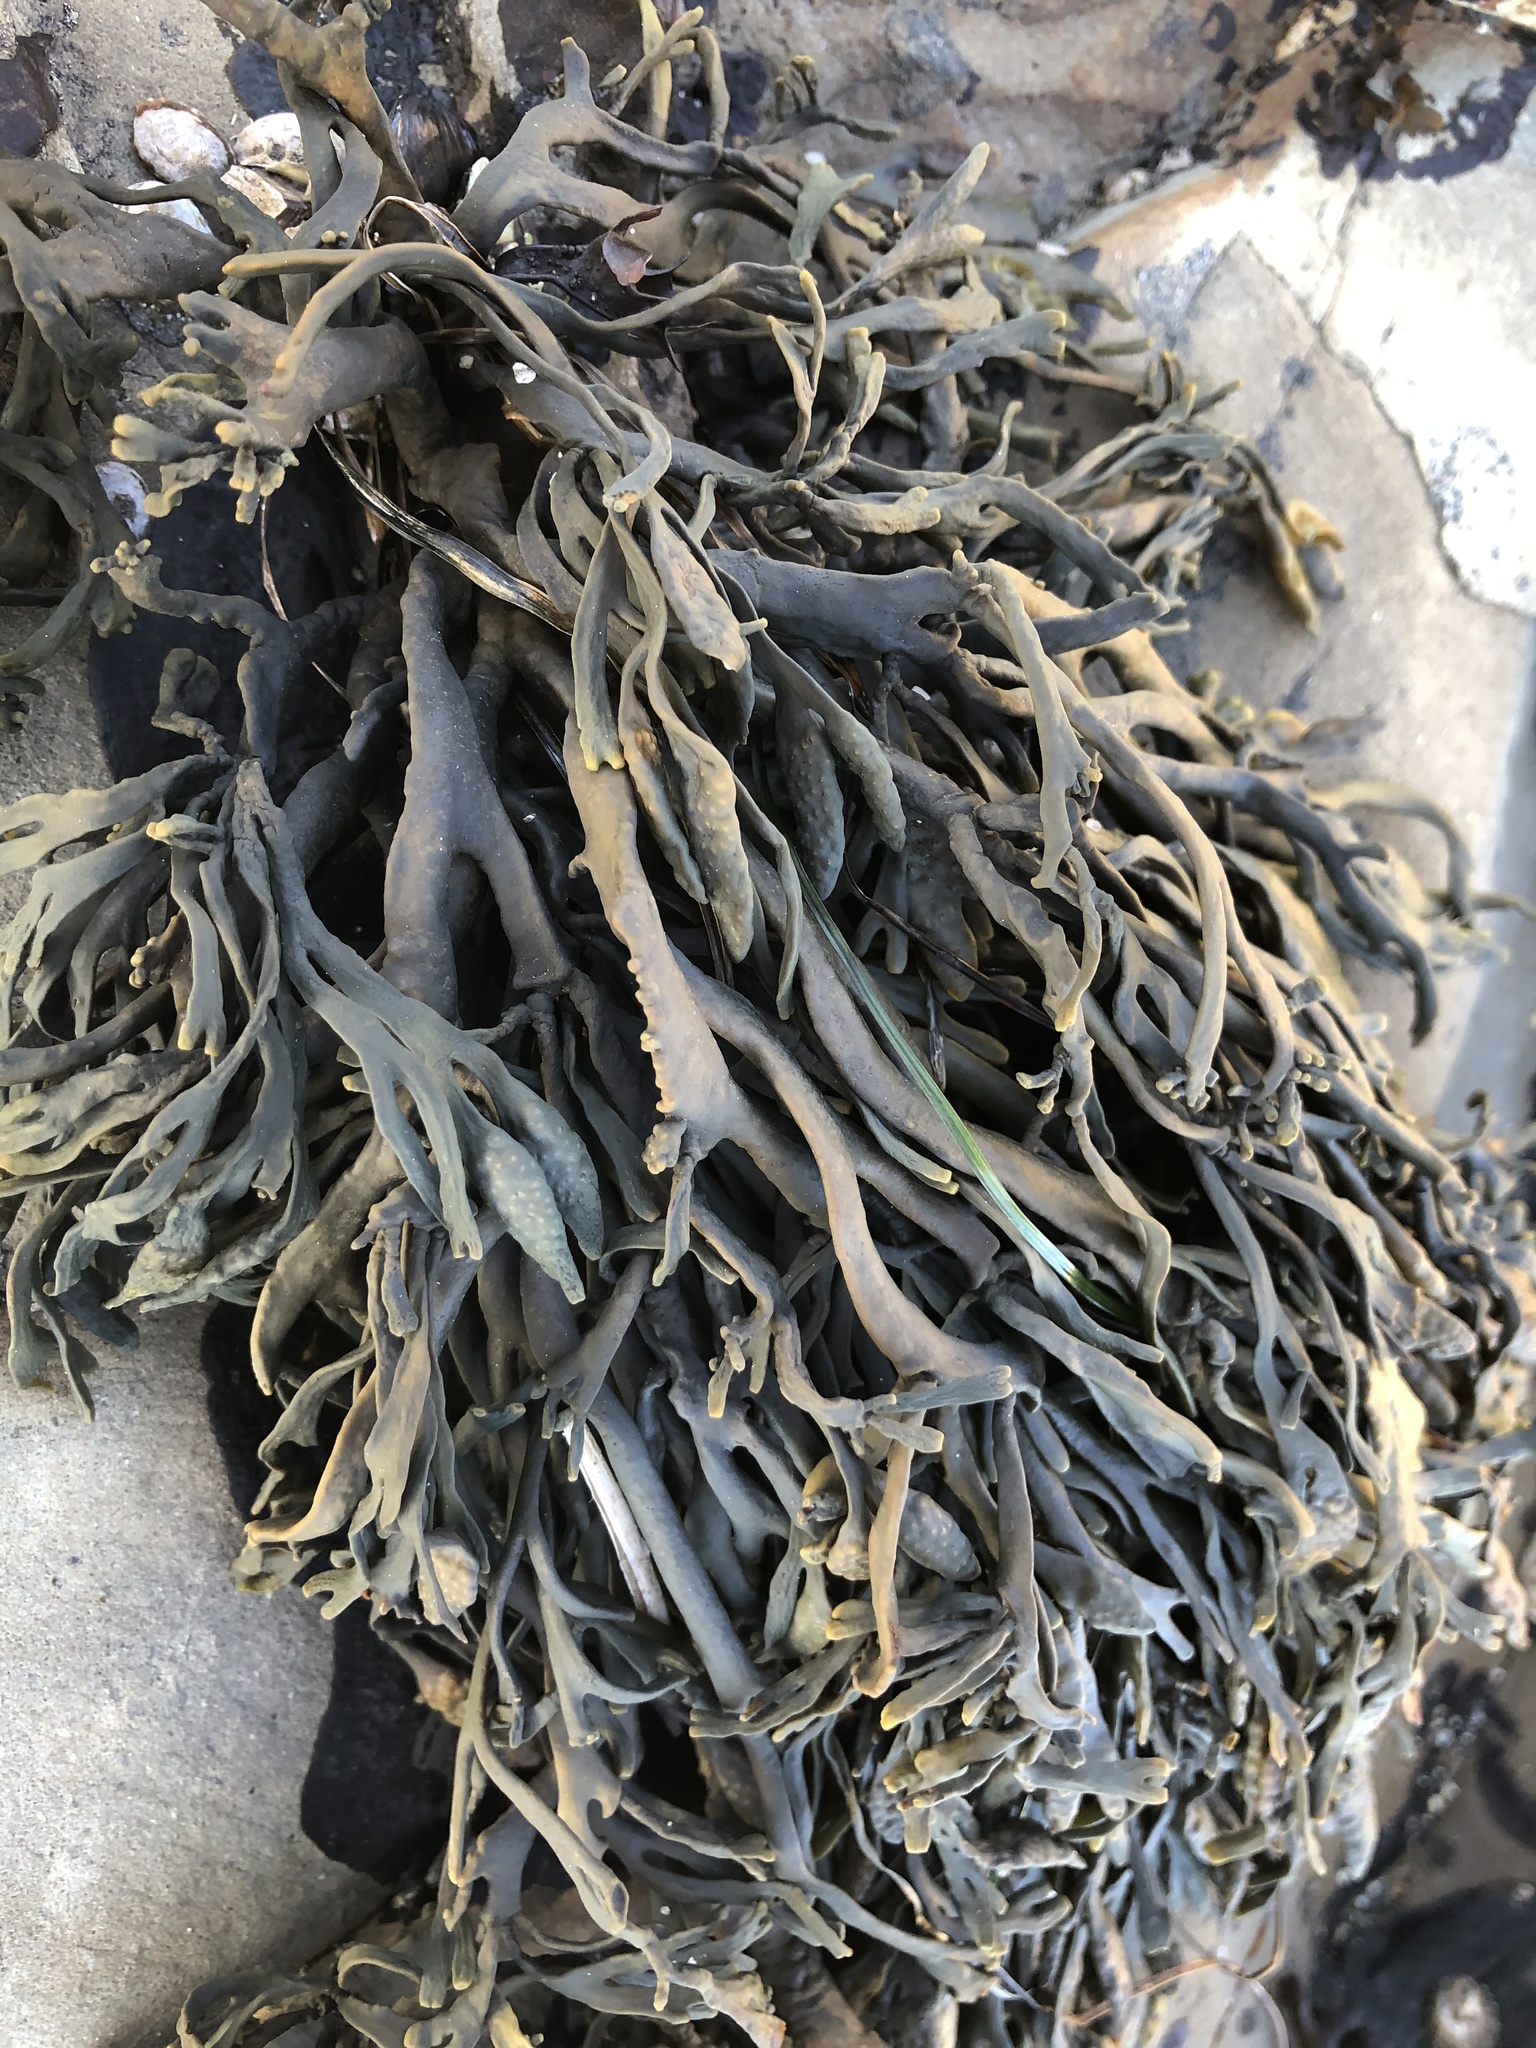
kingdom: Chromista
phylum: Ochrophyta
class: Phaeophyceae
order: Fucales
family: Fucaceae
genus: Silvetia
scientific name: Silvetia
